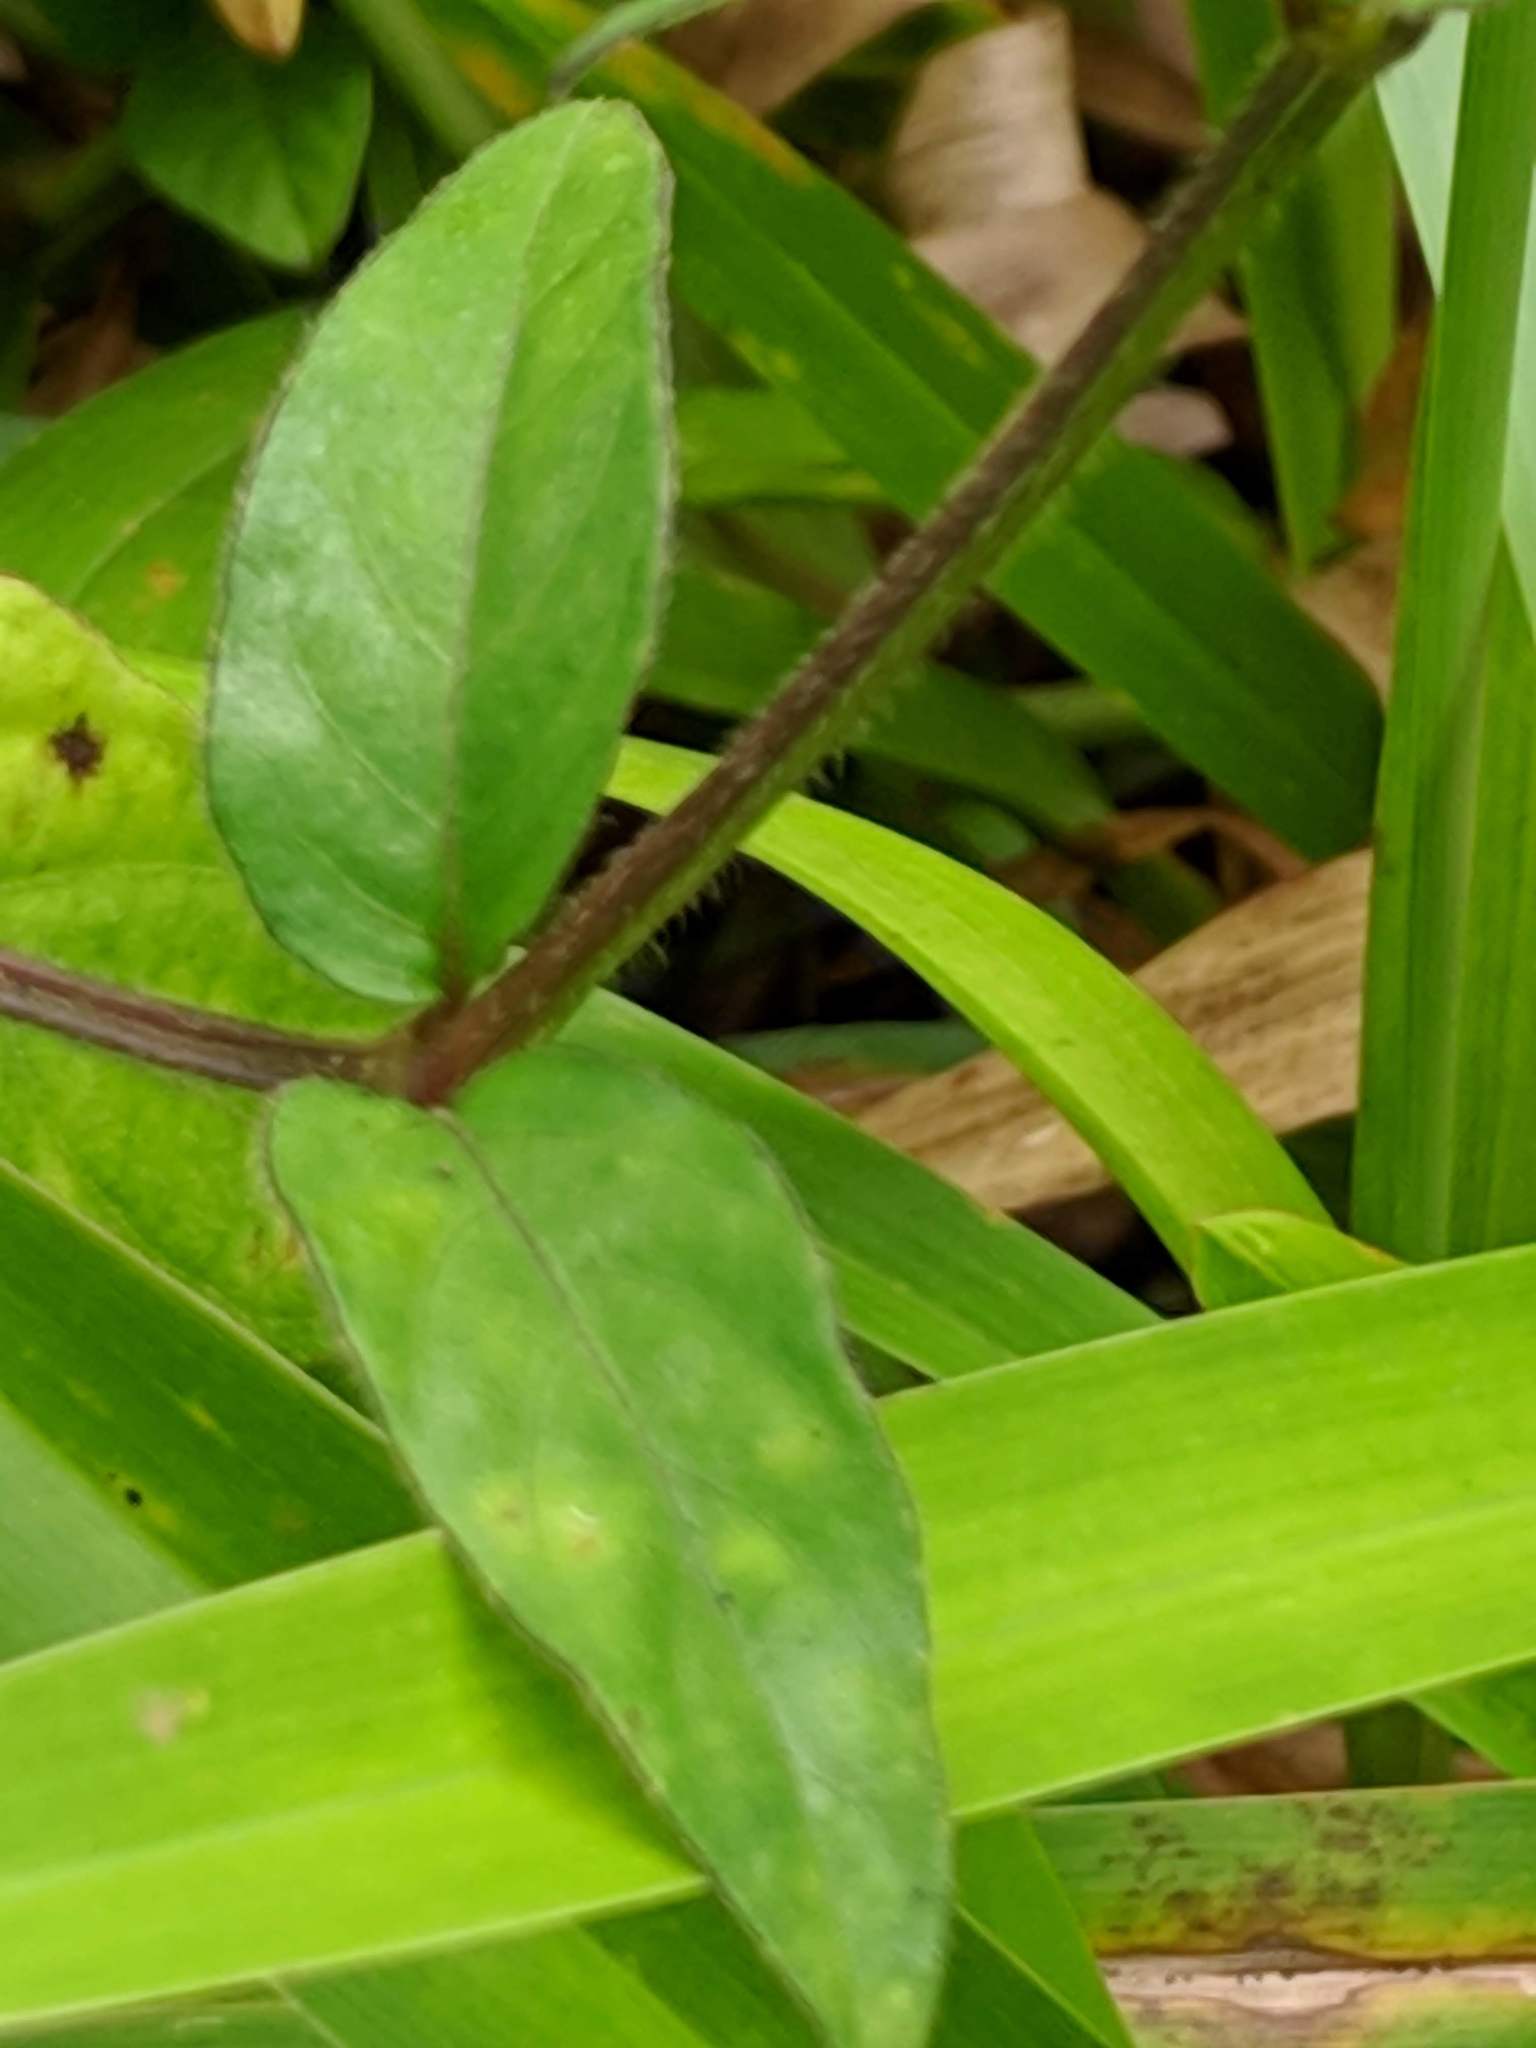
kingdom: Plantae
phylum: Tracheophyta
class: Magnoliopsida
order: Lamiales
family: Acanthaceae
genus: Asystasia
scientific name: Asystasia intrusa
